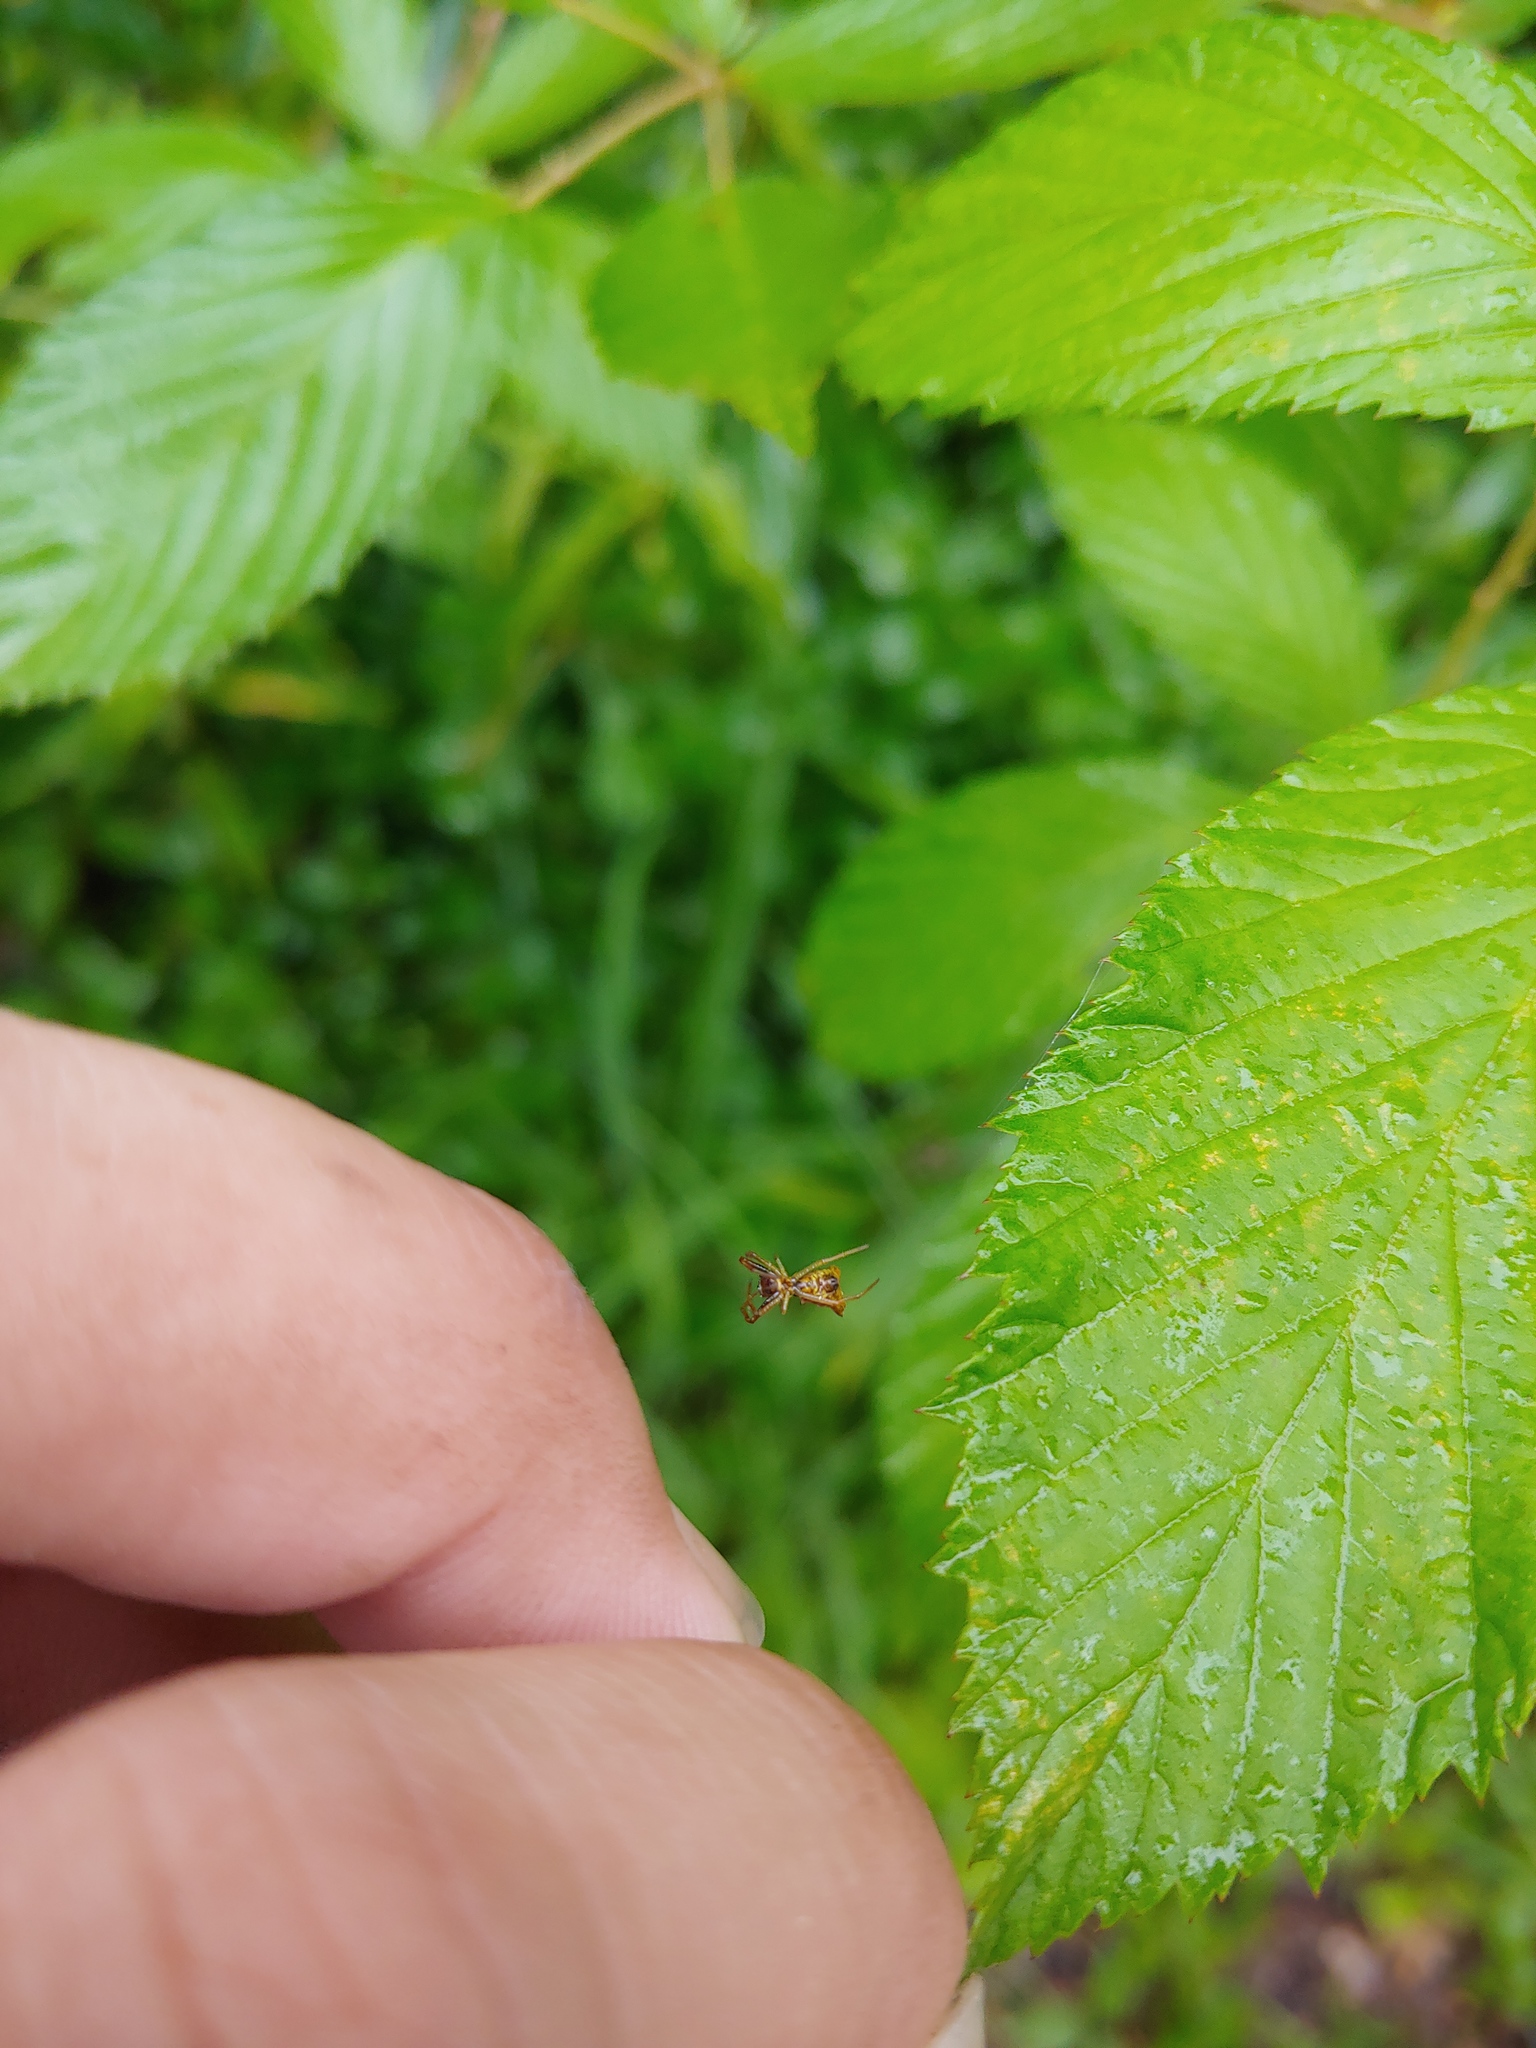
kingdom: Animalia
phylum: Arthropoda
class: Arachnida
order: Araneae
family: Araneidae
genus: Micrathena
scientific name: Micrathena sagittata
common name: Orb weavers
